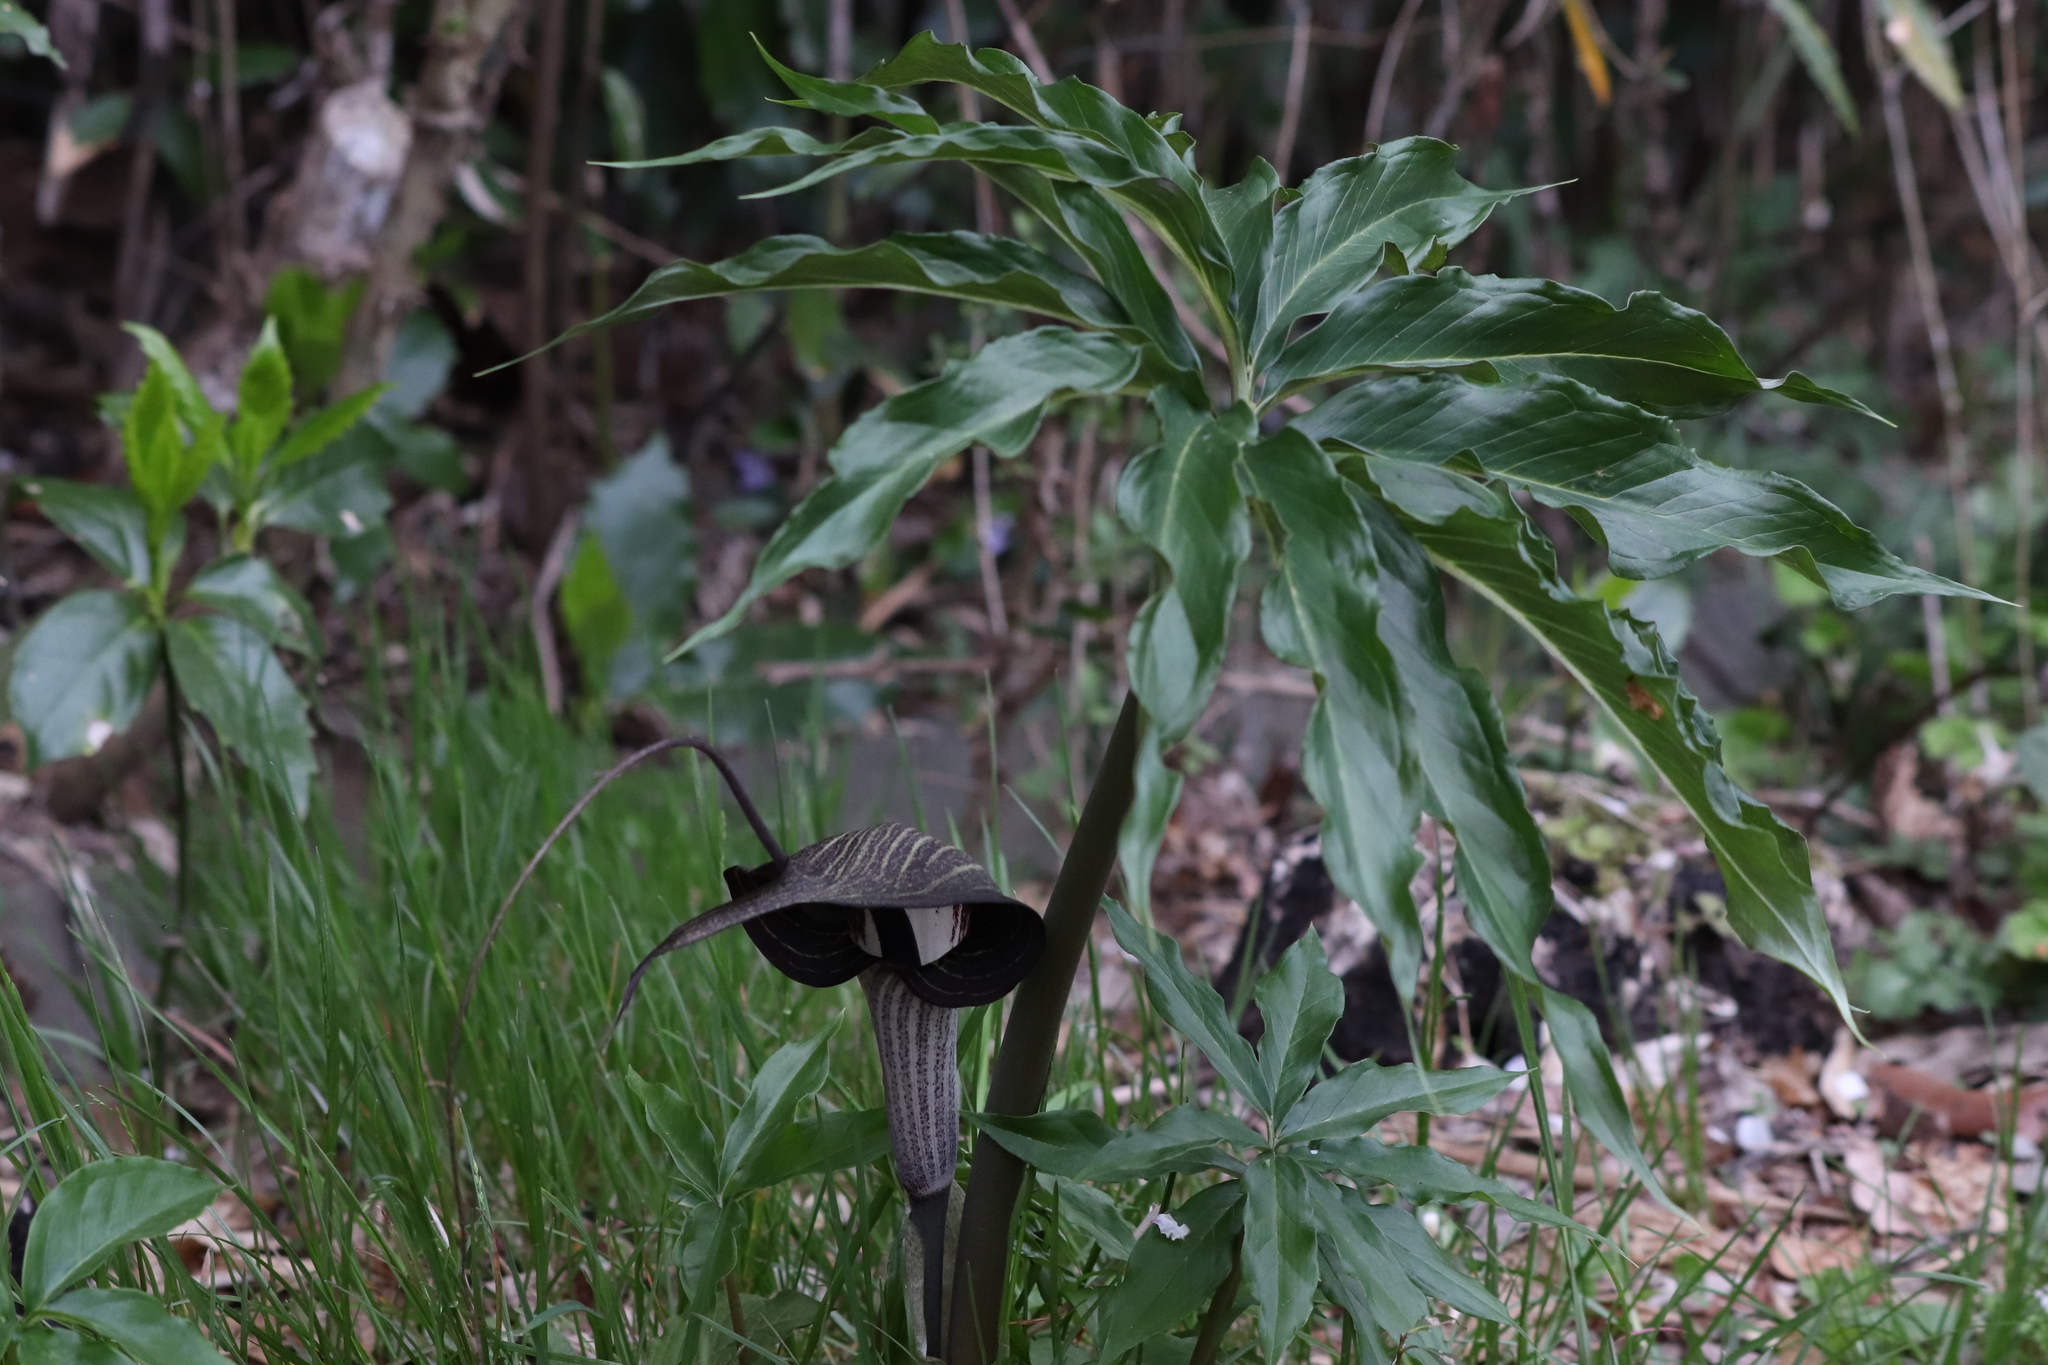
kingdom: Plantae
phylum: Tracheophyta
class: Liliopsida
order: Alismatales
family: Araceae
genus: Arisaema
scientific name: Arisaema thunbergii
